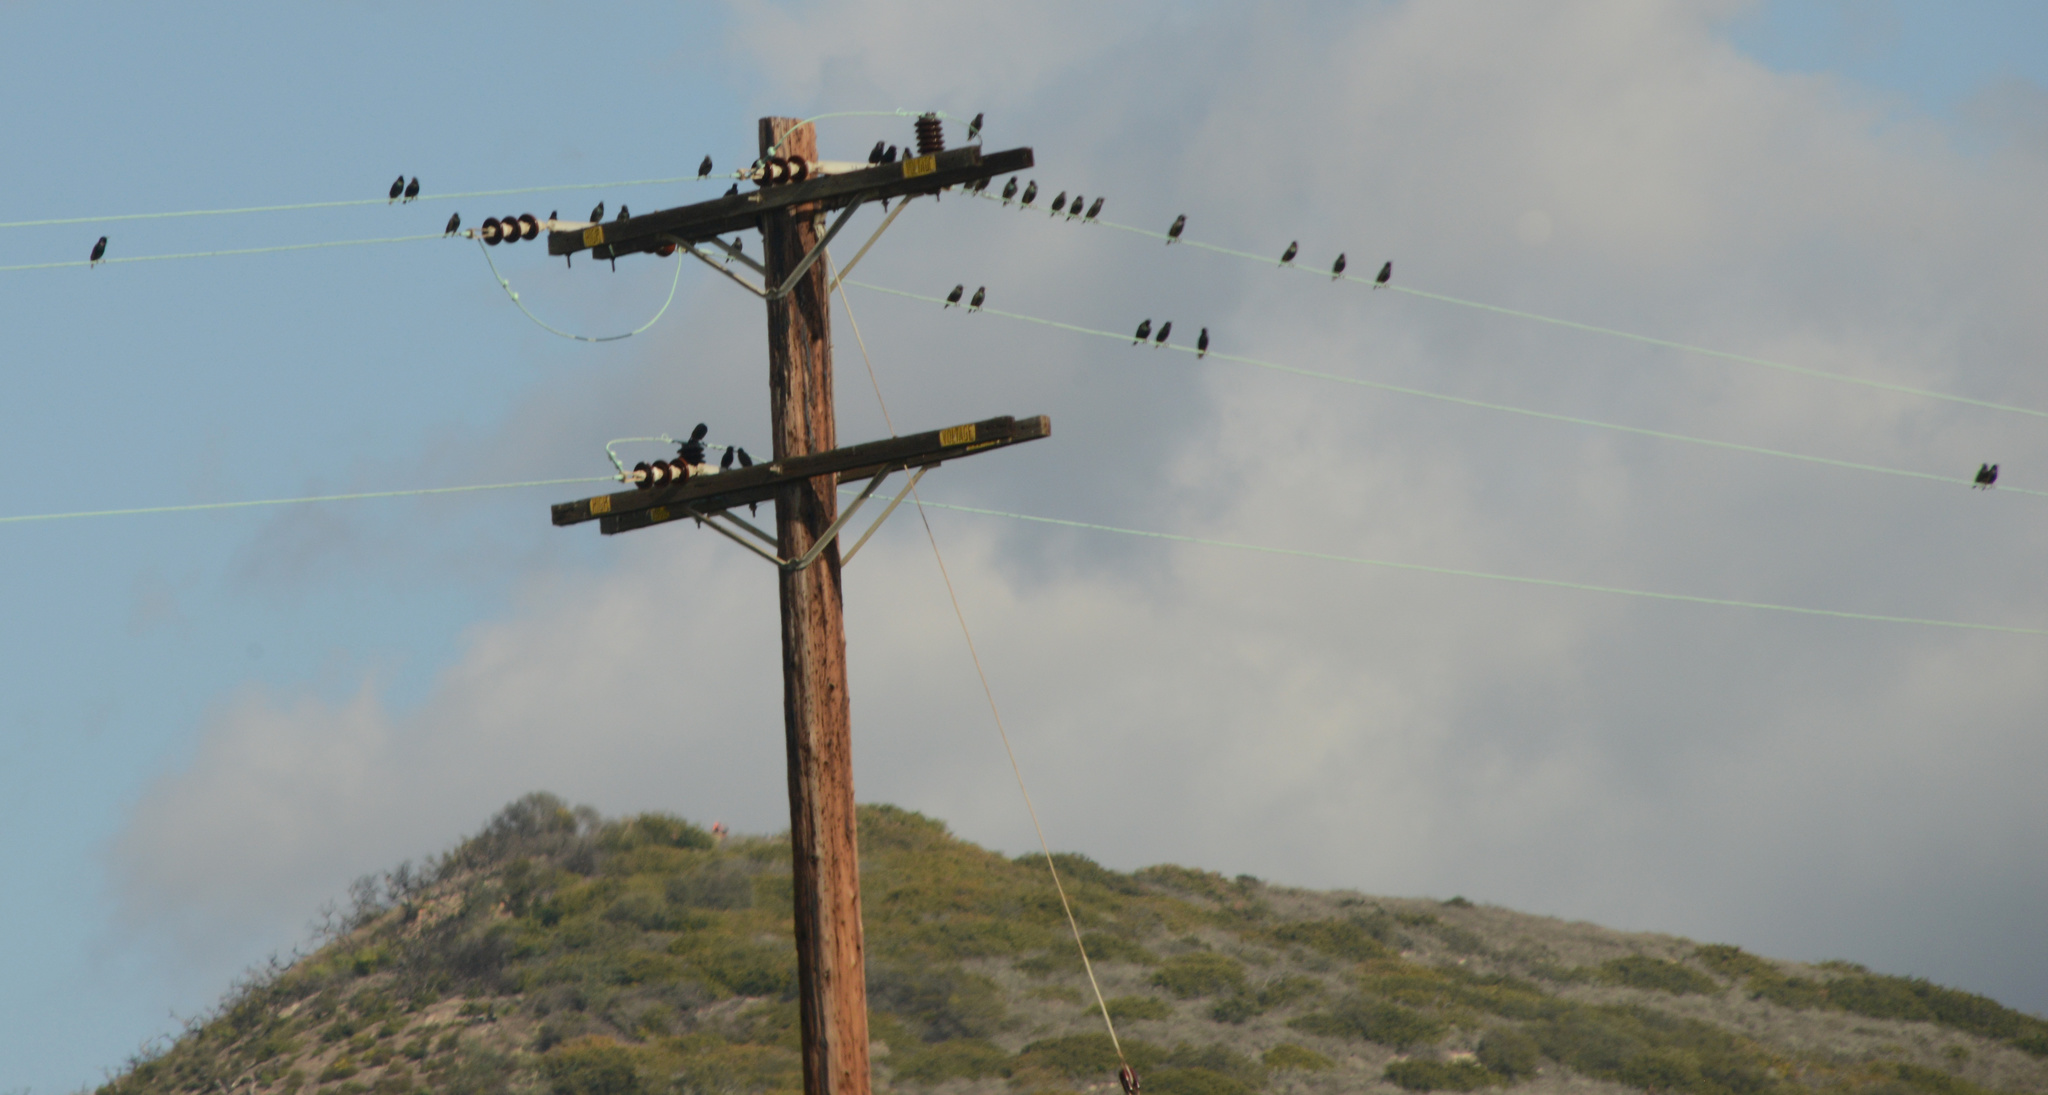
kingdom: Animalia
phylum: Chordata
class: Aves
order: Passeriformes
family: Sturnidae
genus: Sturnus
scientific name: Sturnus vulgaris
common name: Common starling
